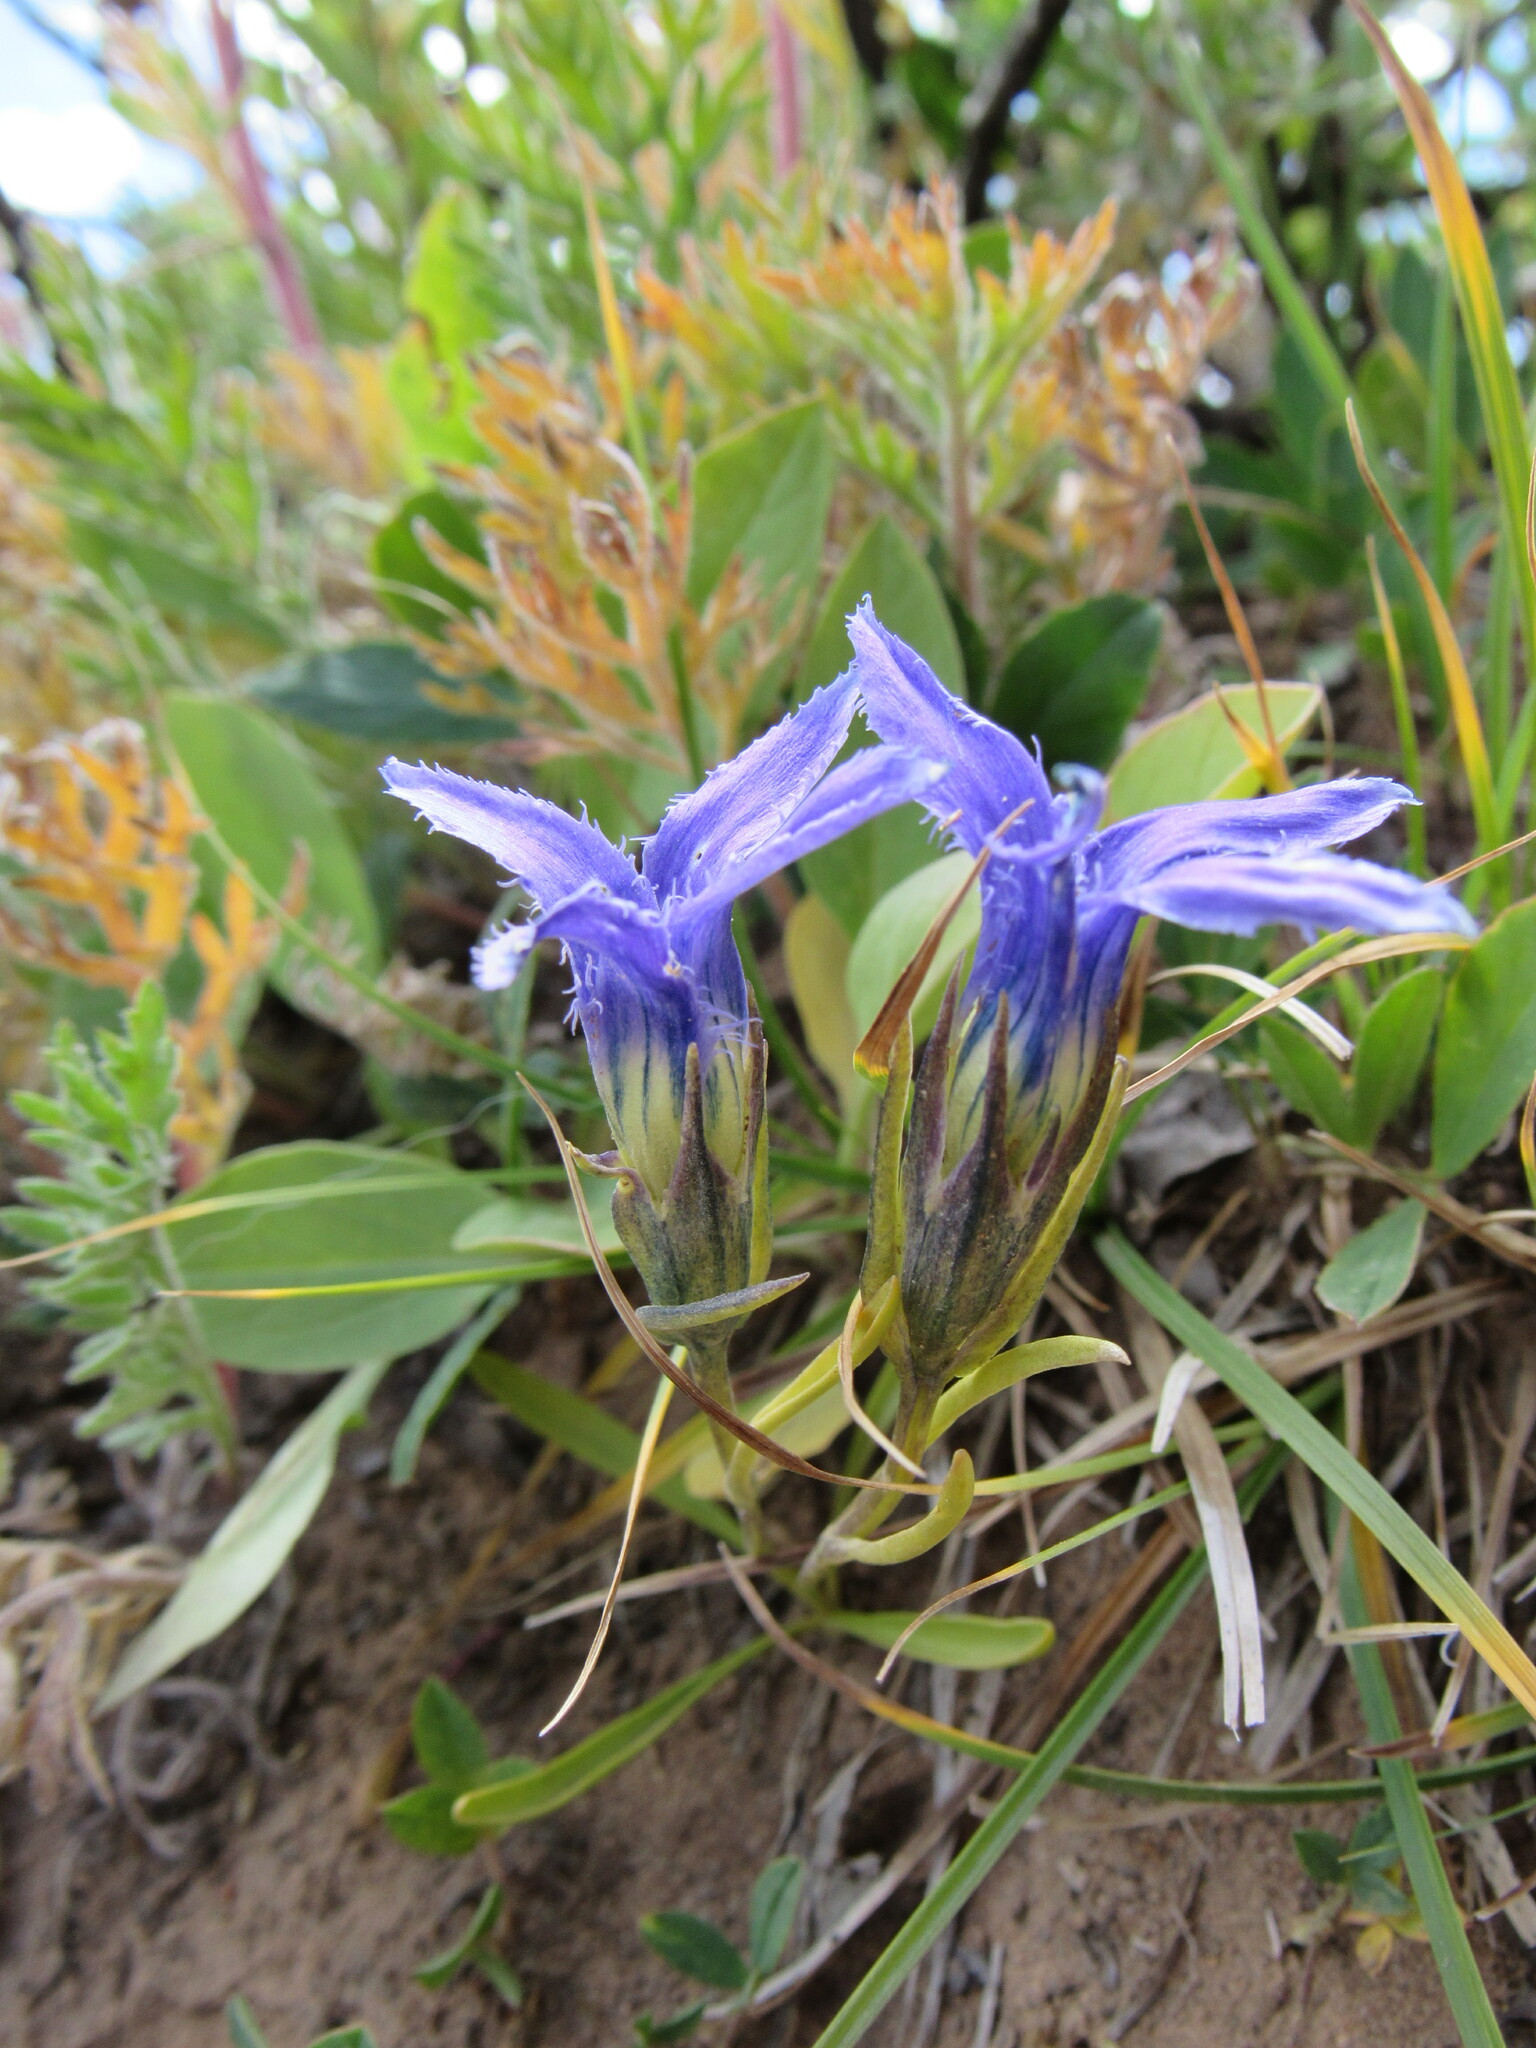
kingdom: Plantae
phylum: Tracheophyta
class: Magnoliopsida
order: Gentianales
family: Gentianaceae
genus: Gentianopsis
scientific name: Gentianopsis barbellata
